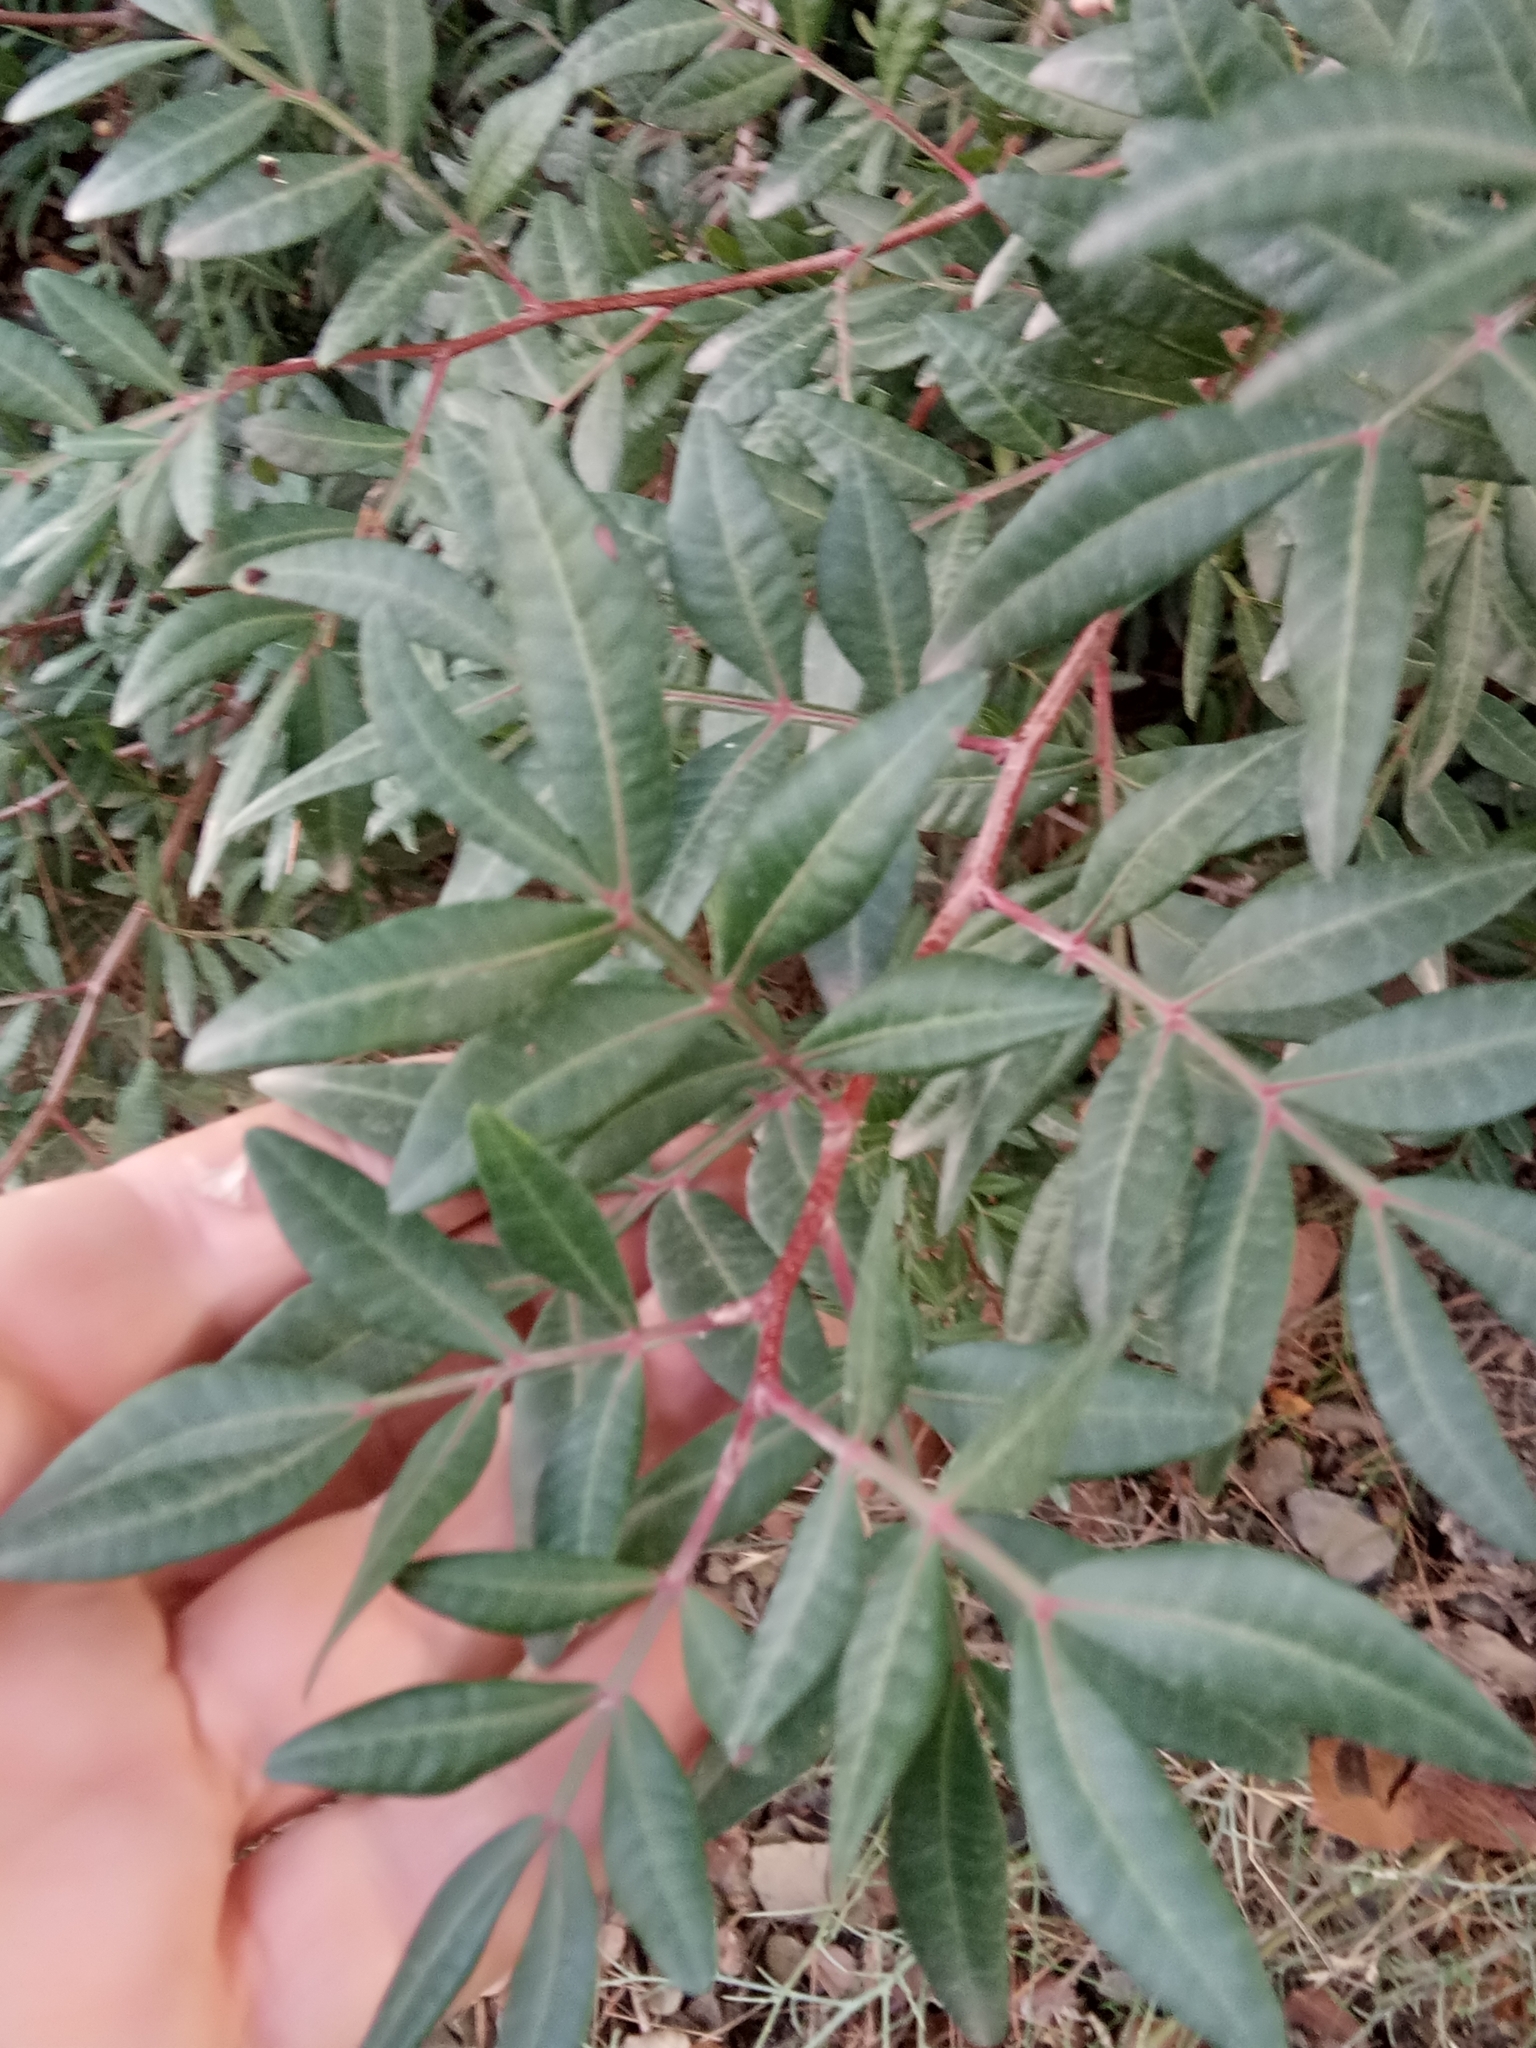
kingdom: Plantae
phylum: Tracheophyta
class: Magnoliopsida
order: Sapindales
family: Anacardiaceae
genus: Pistacia
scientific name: Pistacia lentiscus
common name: Lentisk
